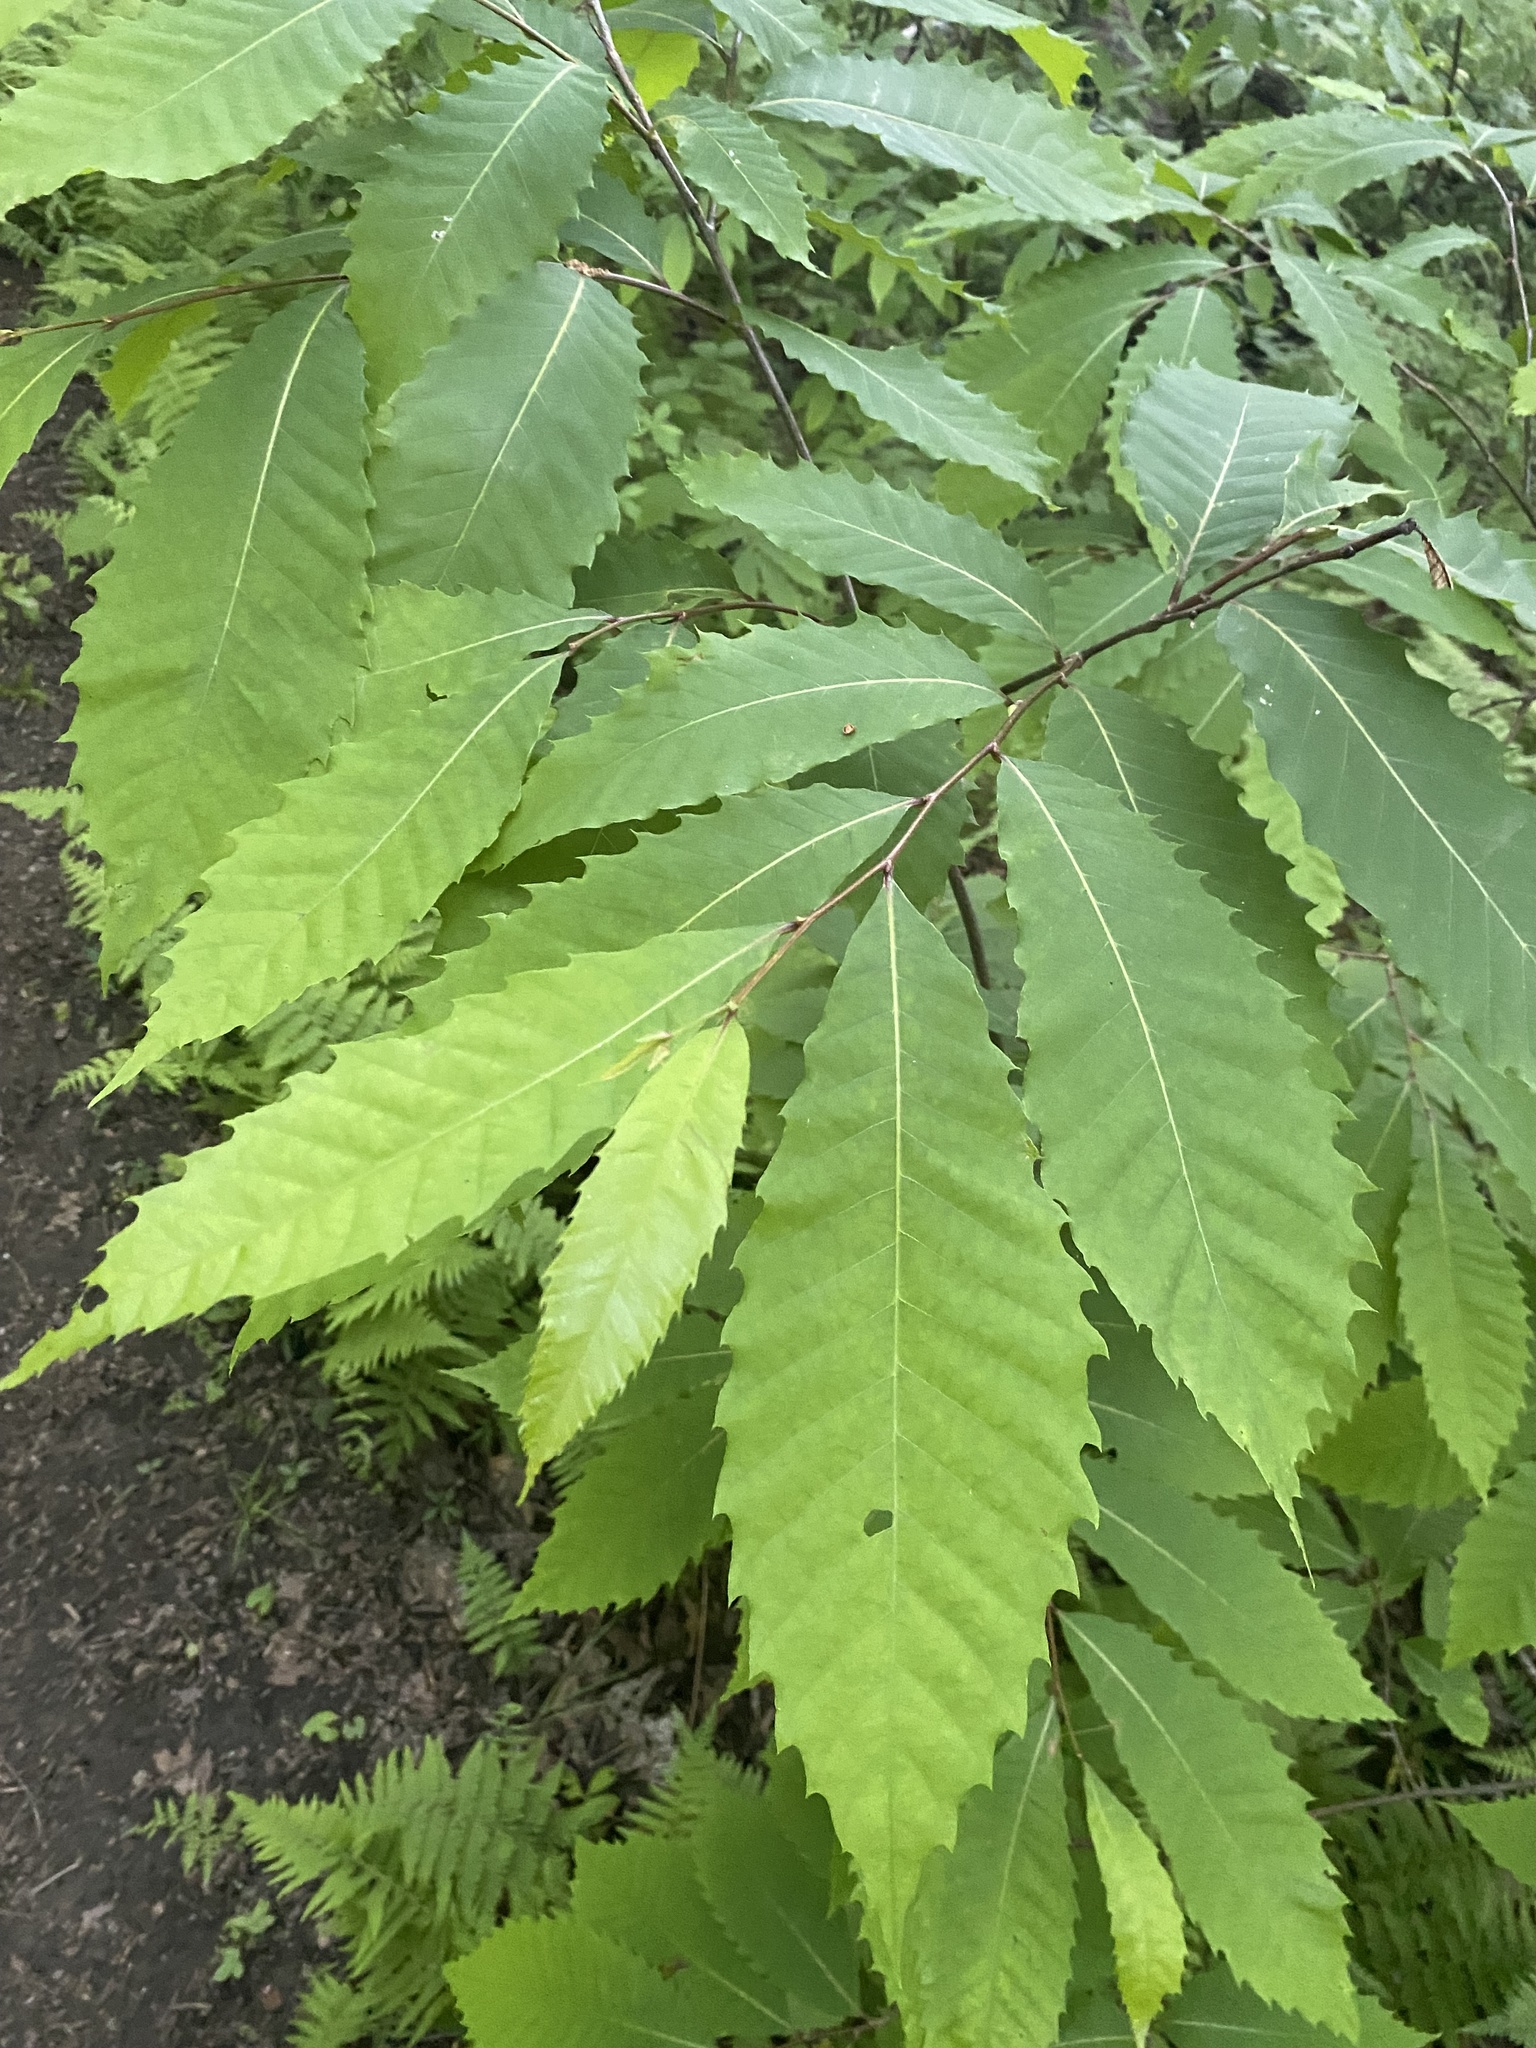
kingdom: Plantae
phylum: Tracheophyta
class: Magnoliopsida
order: Fagales
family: Fagaceae
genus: Castanea
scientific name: Castanea dentata
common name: American chestnut
